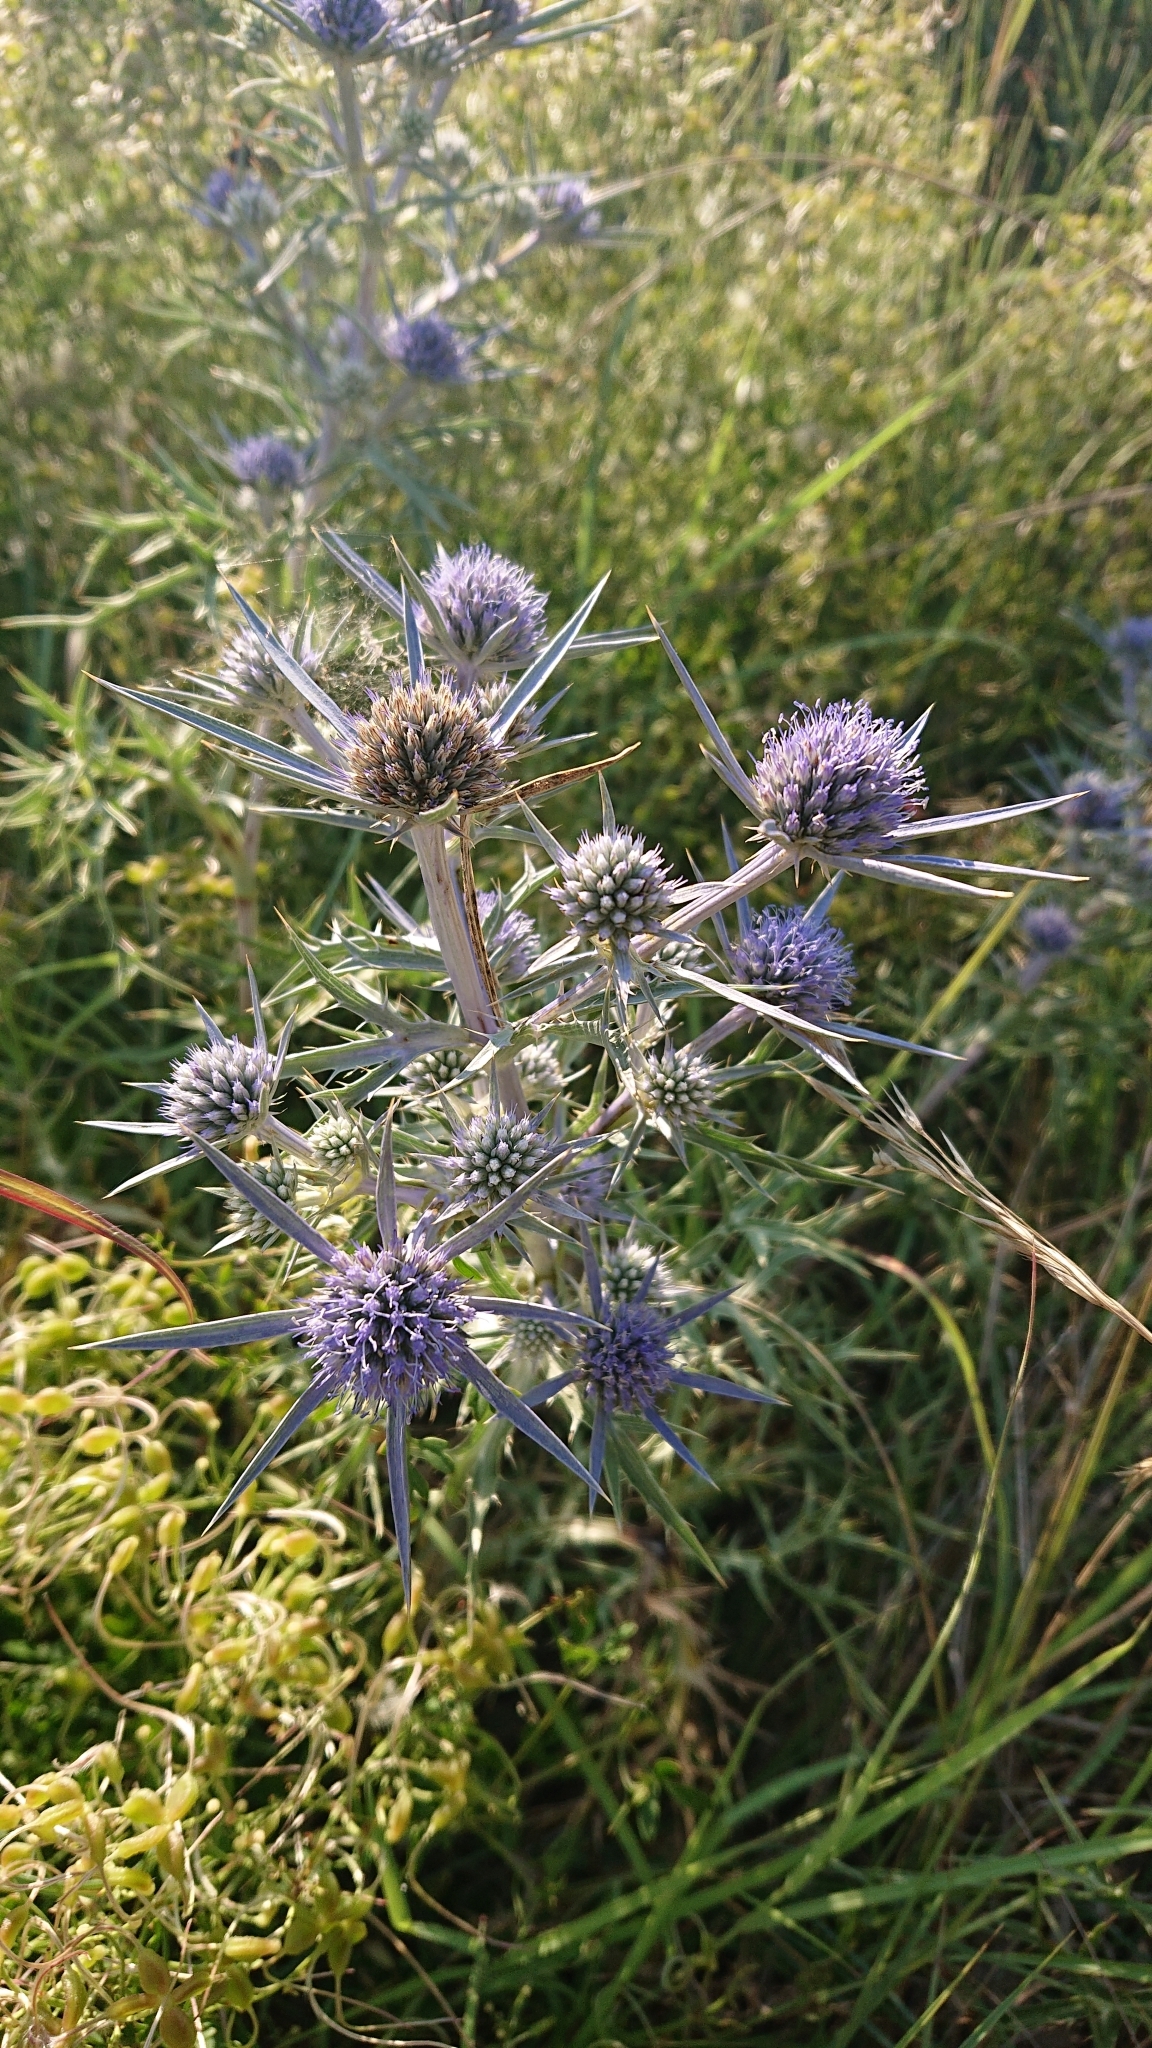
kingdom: Plantae
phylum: Tracheophyta
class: Magnoliopsida
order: Apiales
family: Apiaceae
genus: Eryngium
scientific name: Eryngium amethystinum
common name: Amethyst eryngo
